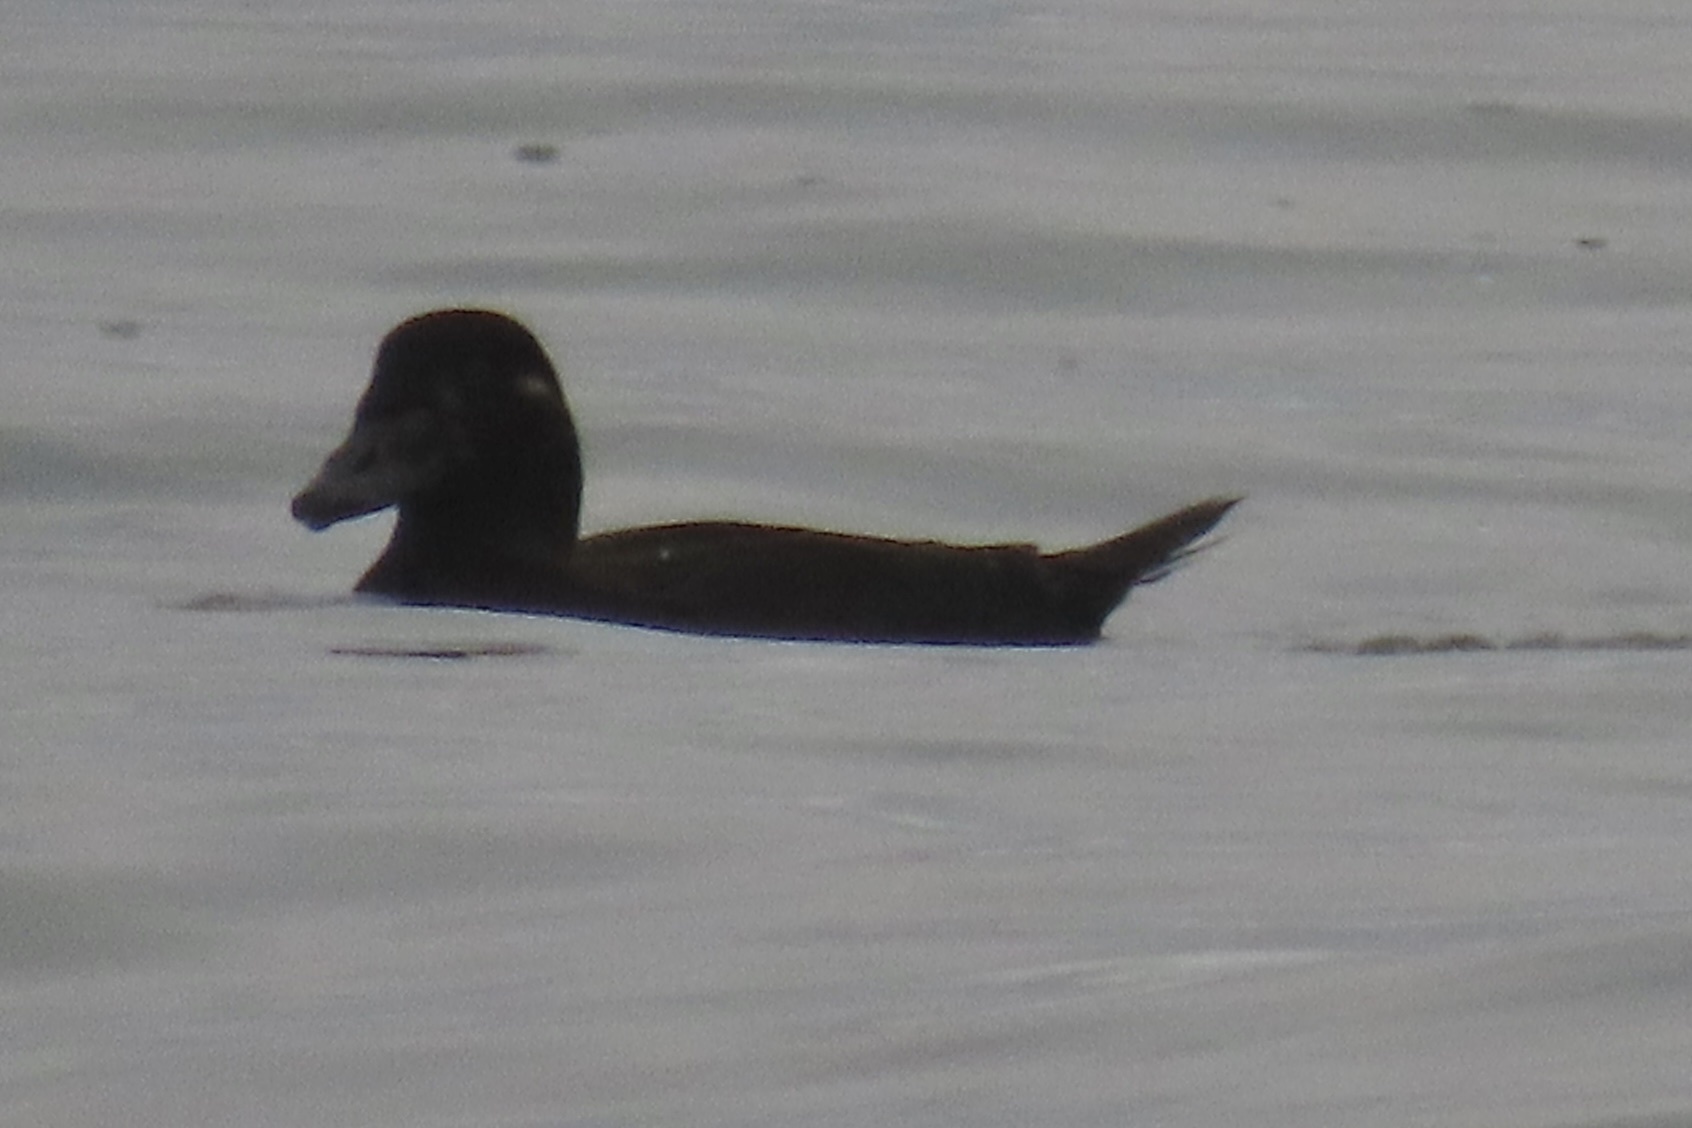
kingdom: Animalia
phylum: Chordata
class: Aves
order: Anseriformes
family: Anatidae
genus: Melanitta
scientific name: Melanitta perspicillata
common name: Surf scoter
